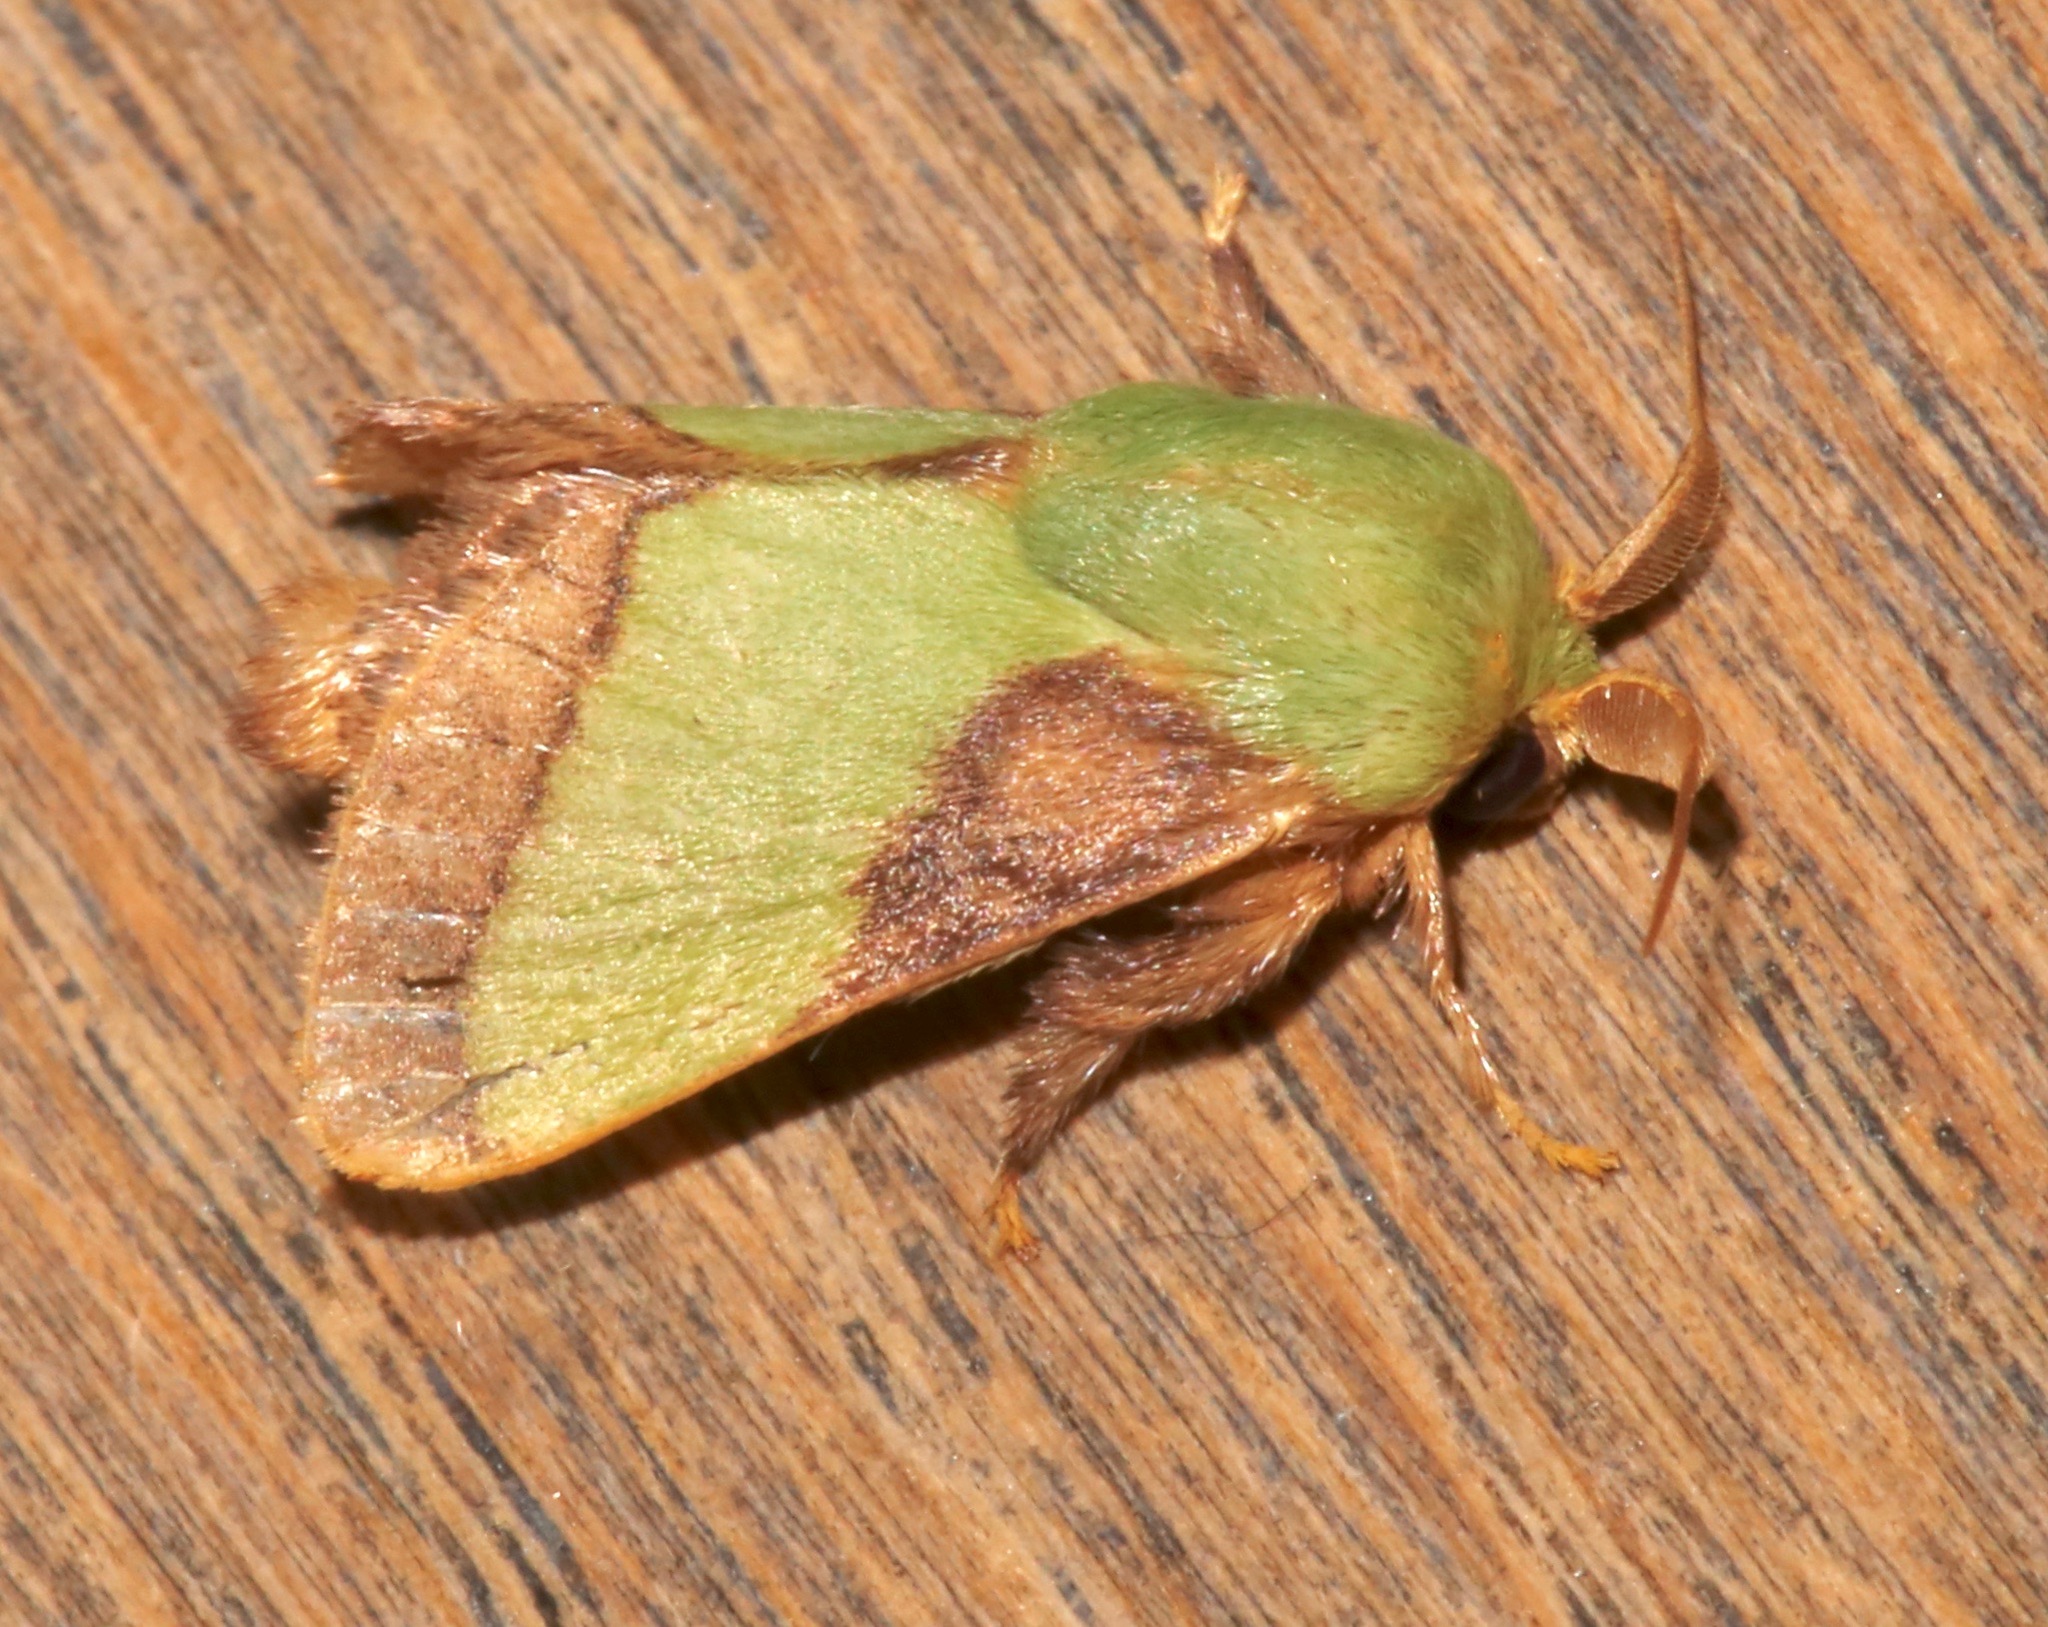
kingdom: Animalia
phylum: Arthropoda
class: Insecta
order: Lepidoptera
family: Limacodidae
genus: Parasa
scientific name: Parasa chloris
